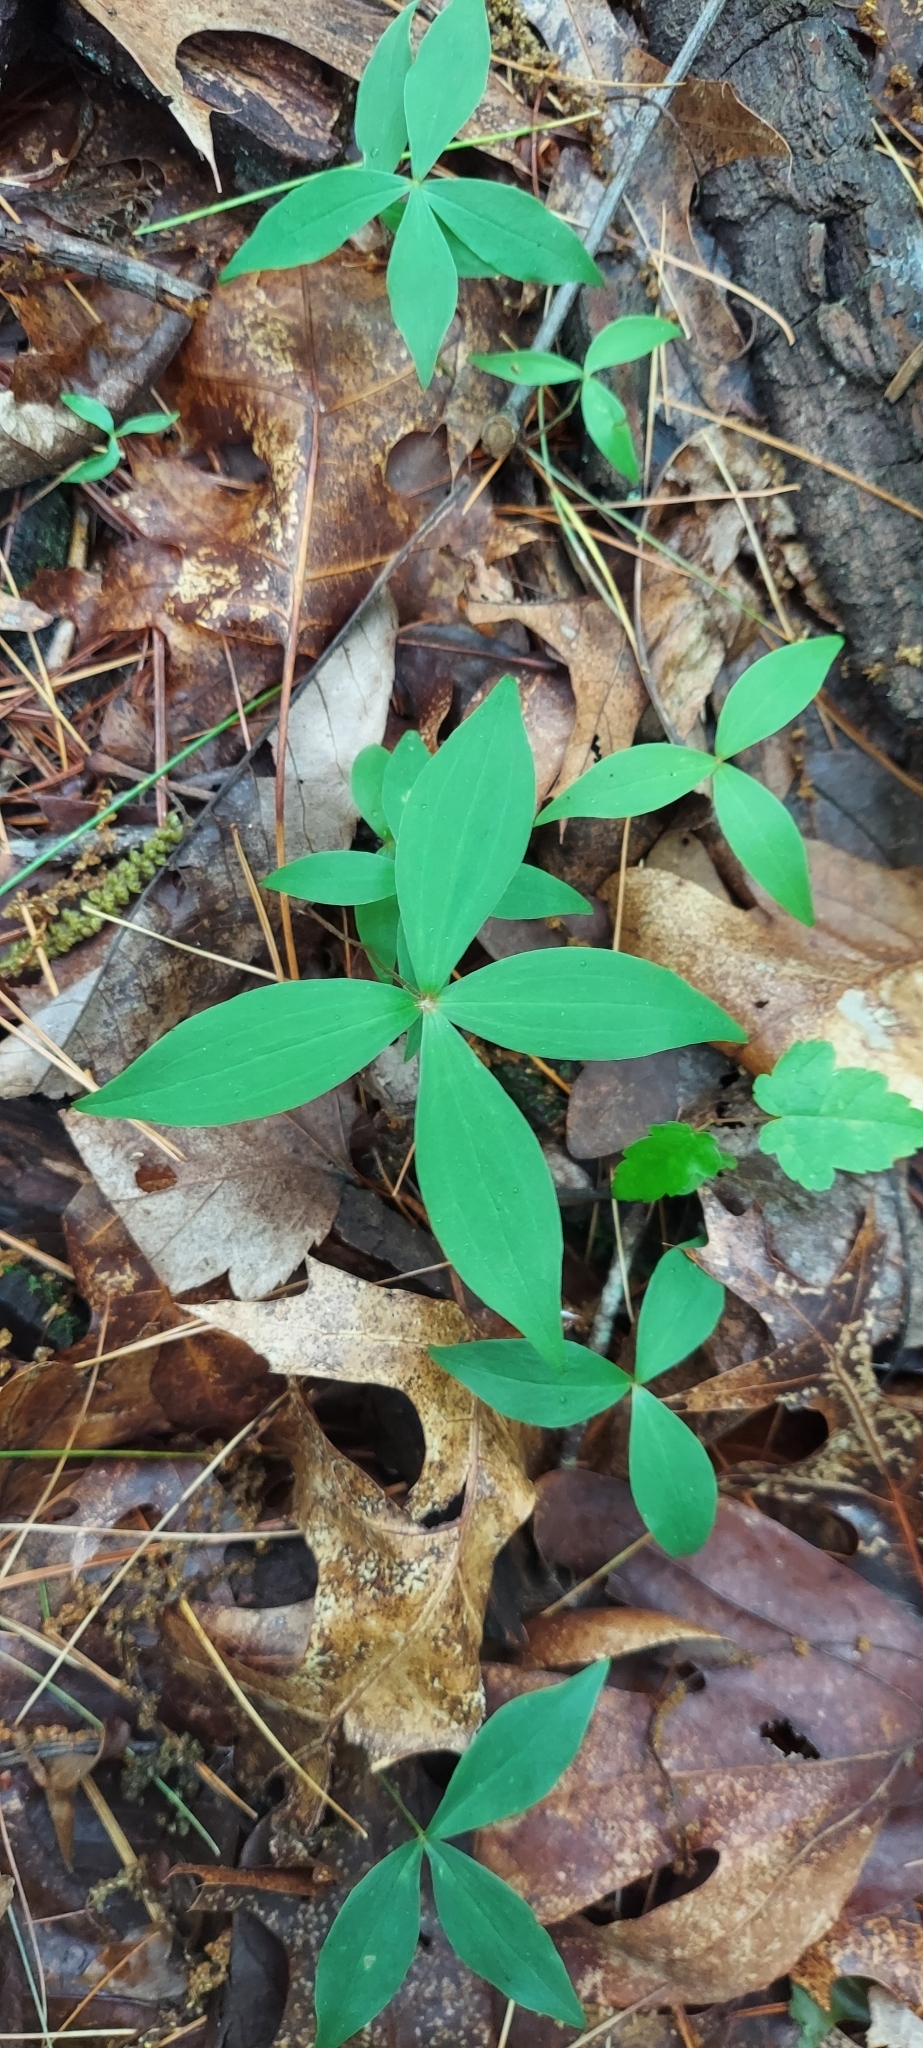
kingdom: Plantae
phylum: Tracheophyta
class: Liliopsida
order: Liliales
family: Liliaceae
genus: Medeola
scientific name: Medeola virginiana
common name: Indian cucumber-root
